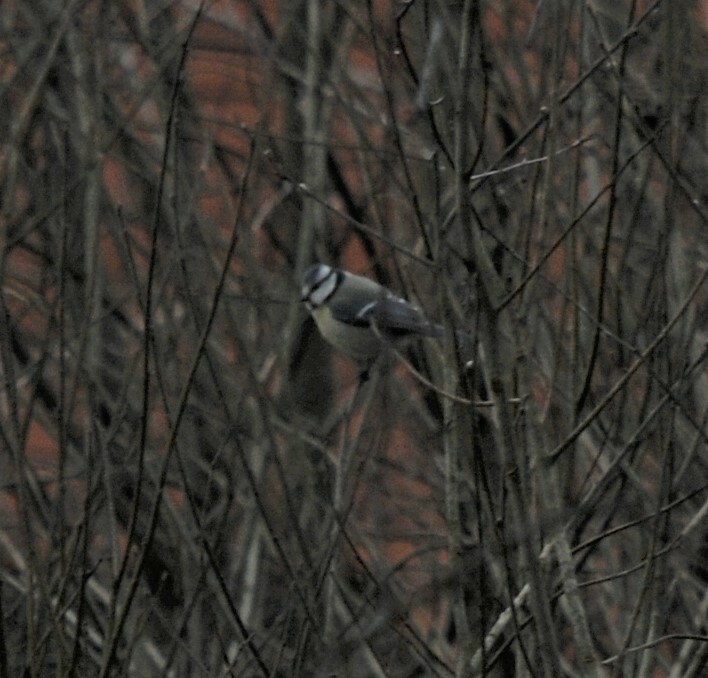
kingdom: Animalia
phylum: Chordata
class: Aves
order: Passeriformes
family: Paridae
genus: Cyanistes
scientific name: Cyanistes caeruleus
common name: Eurasian blue tit
